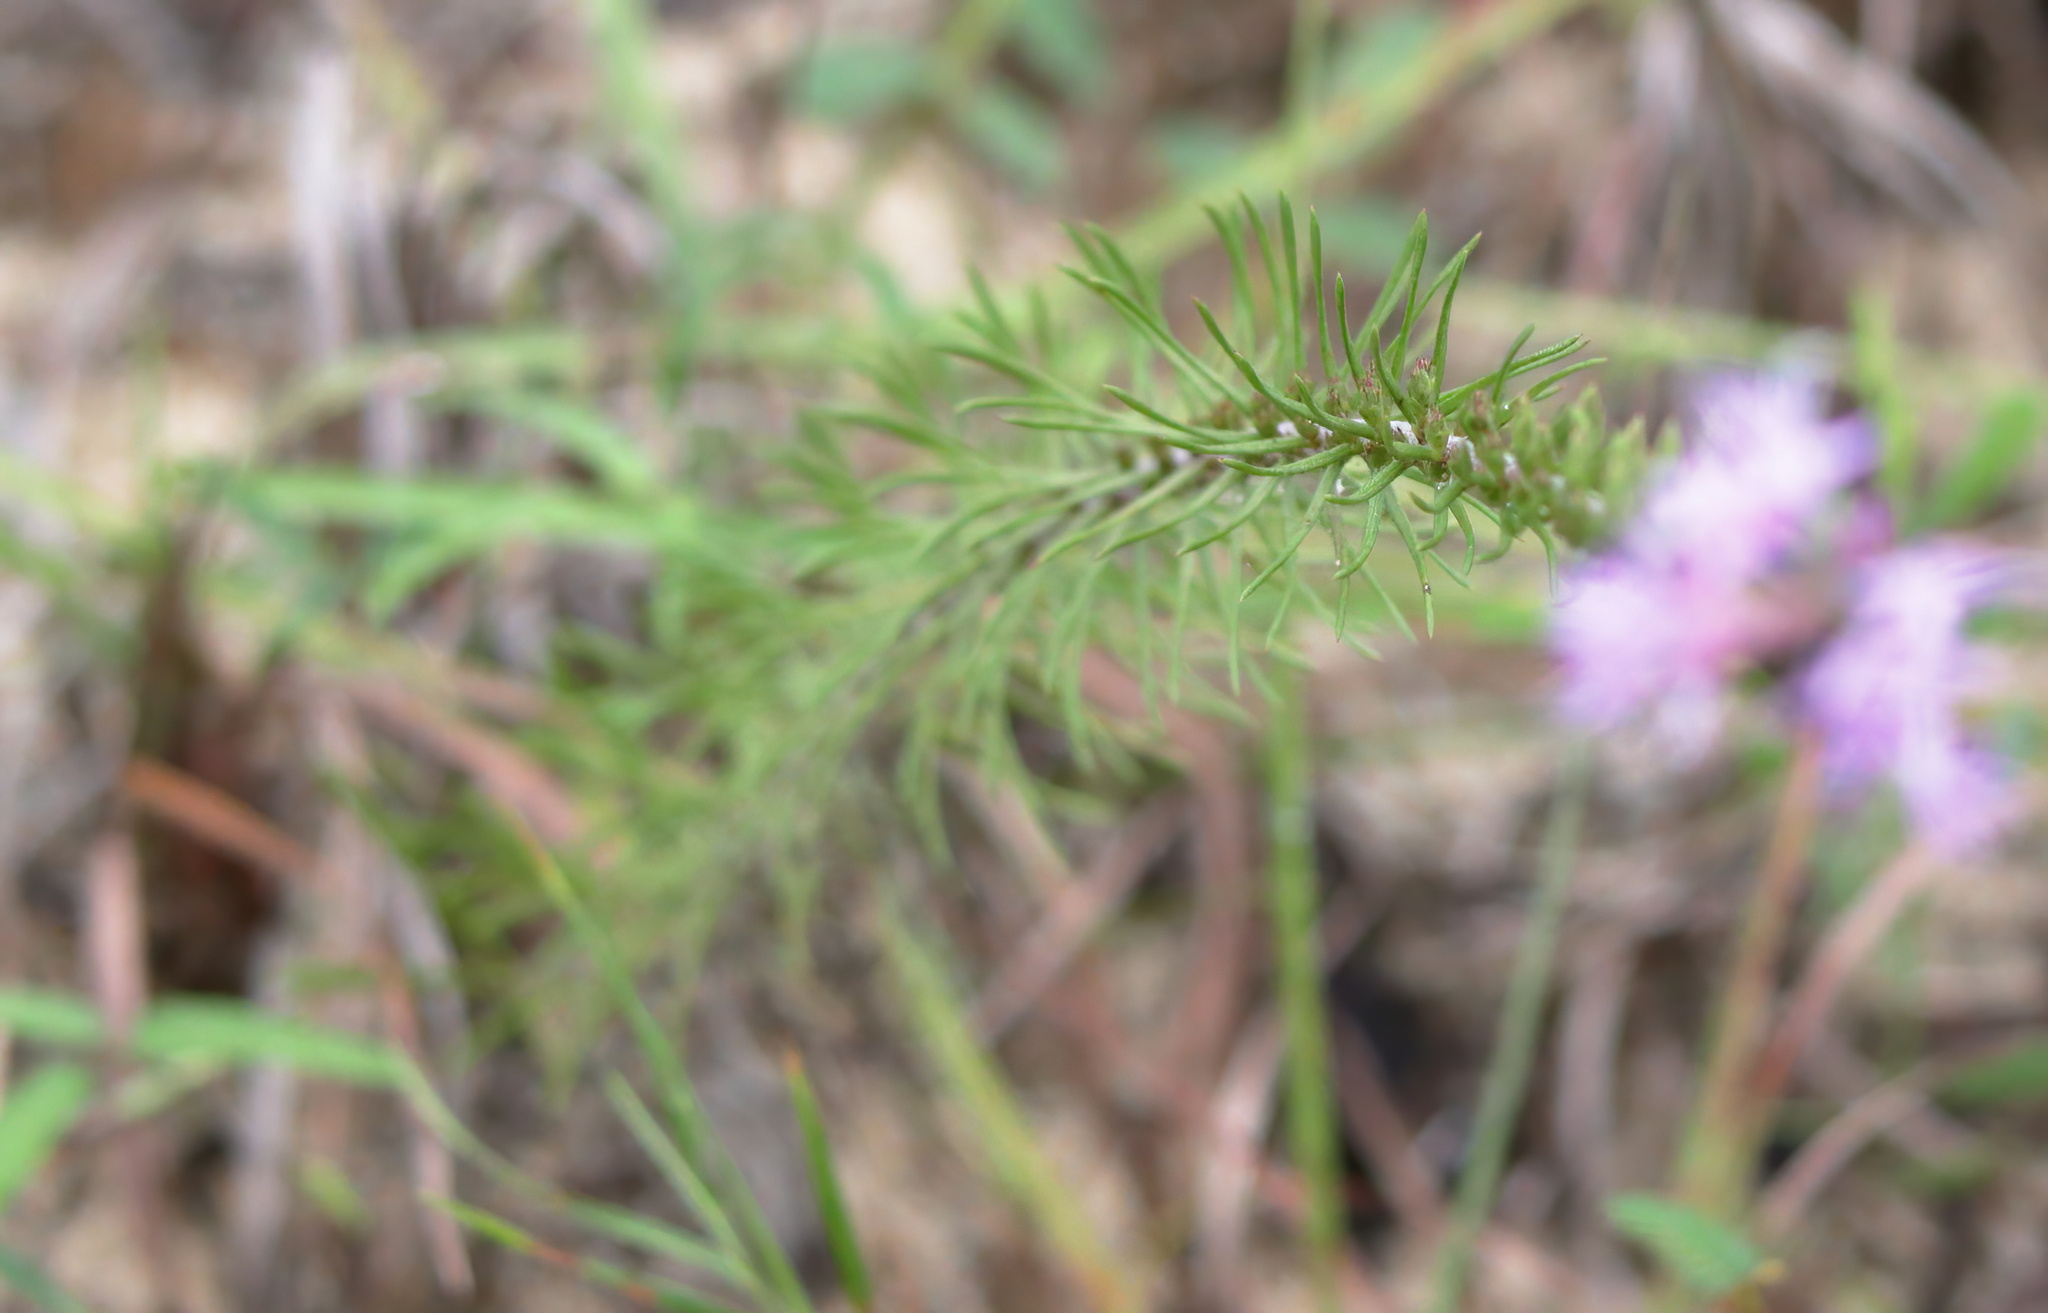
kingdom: Plantae
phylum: Tracheophyta
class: Magnoliopsida
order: Asterales
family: Asteraceae
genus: Liatris
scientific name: Liatris pauciflora
